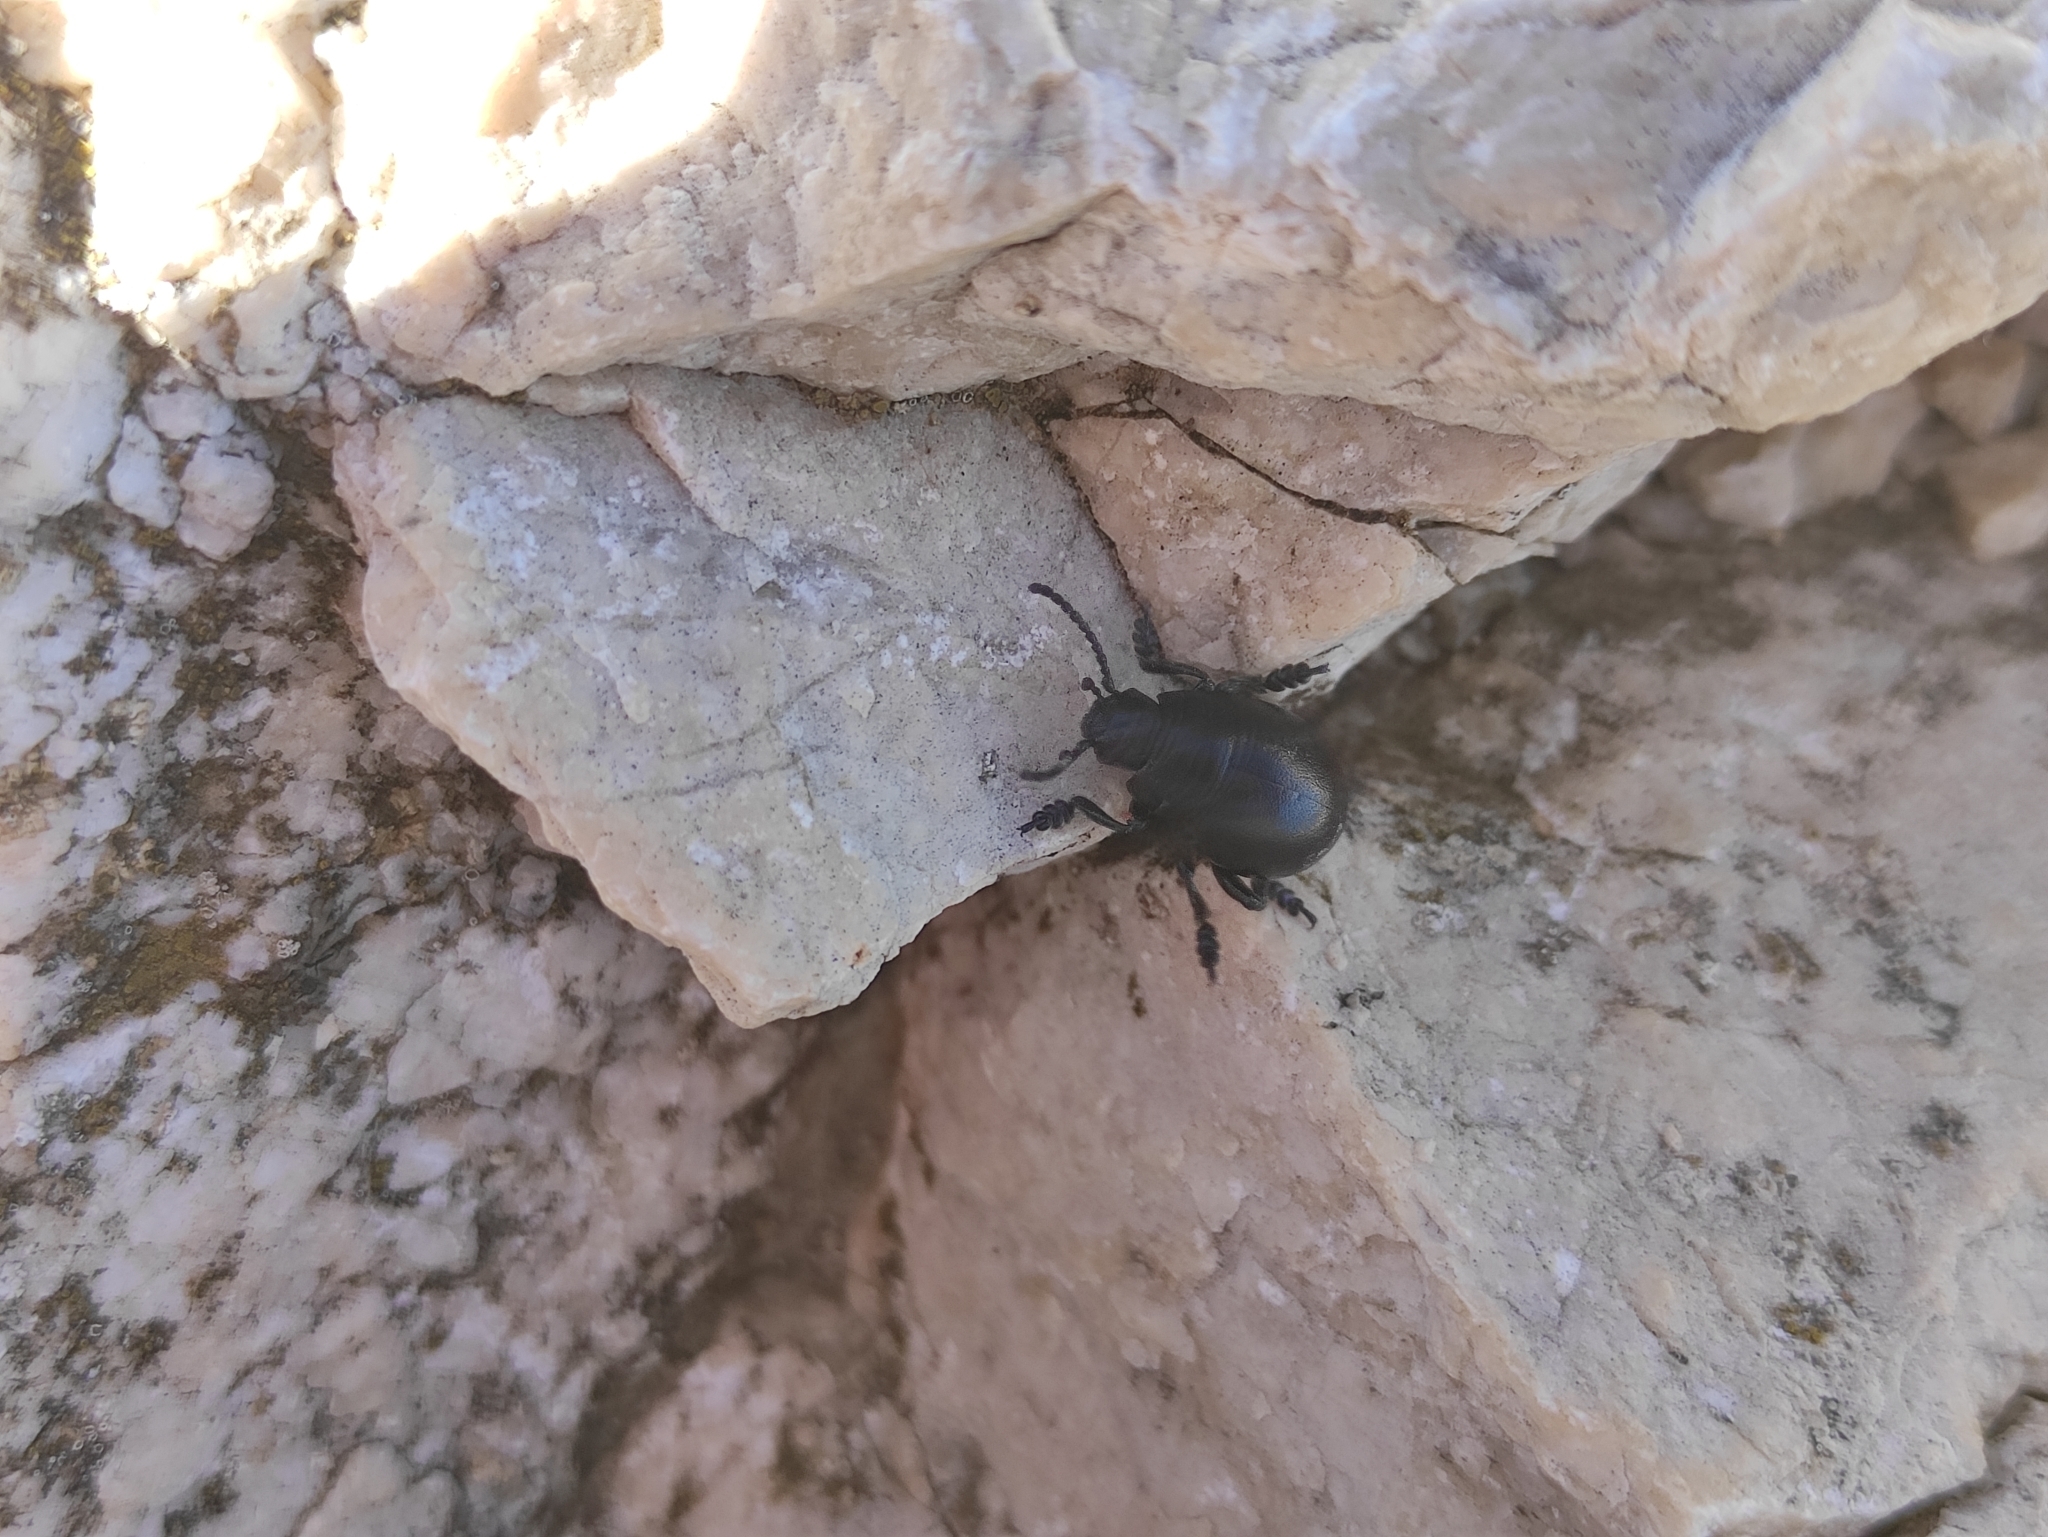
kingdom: Animalia
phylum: Arthropoda
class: Insecta
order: Coleoptera
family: Chrysomelidae
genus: Timarcha
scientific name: Timarcha goettingensis
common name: Small bloody-nosed beetle
